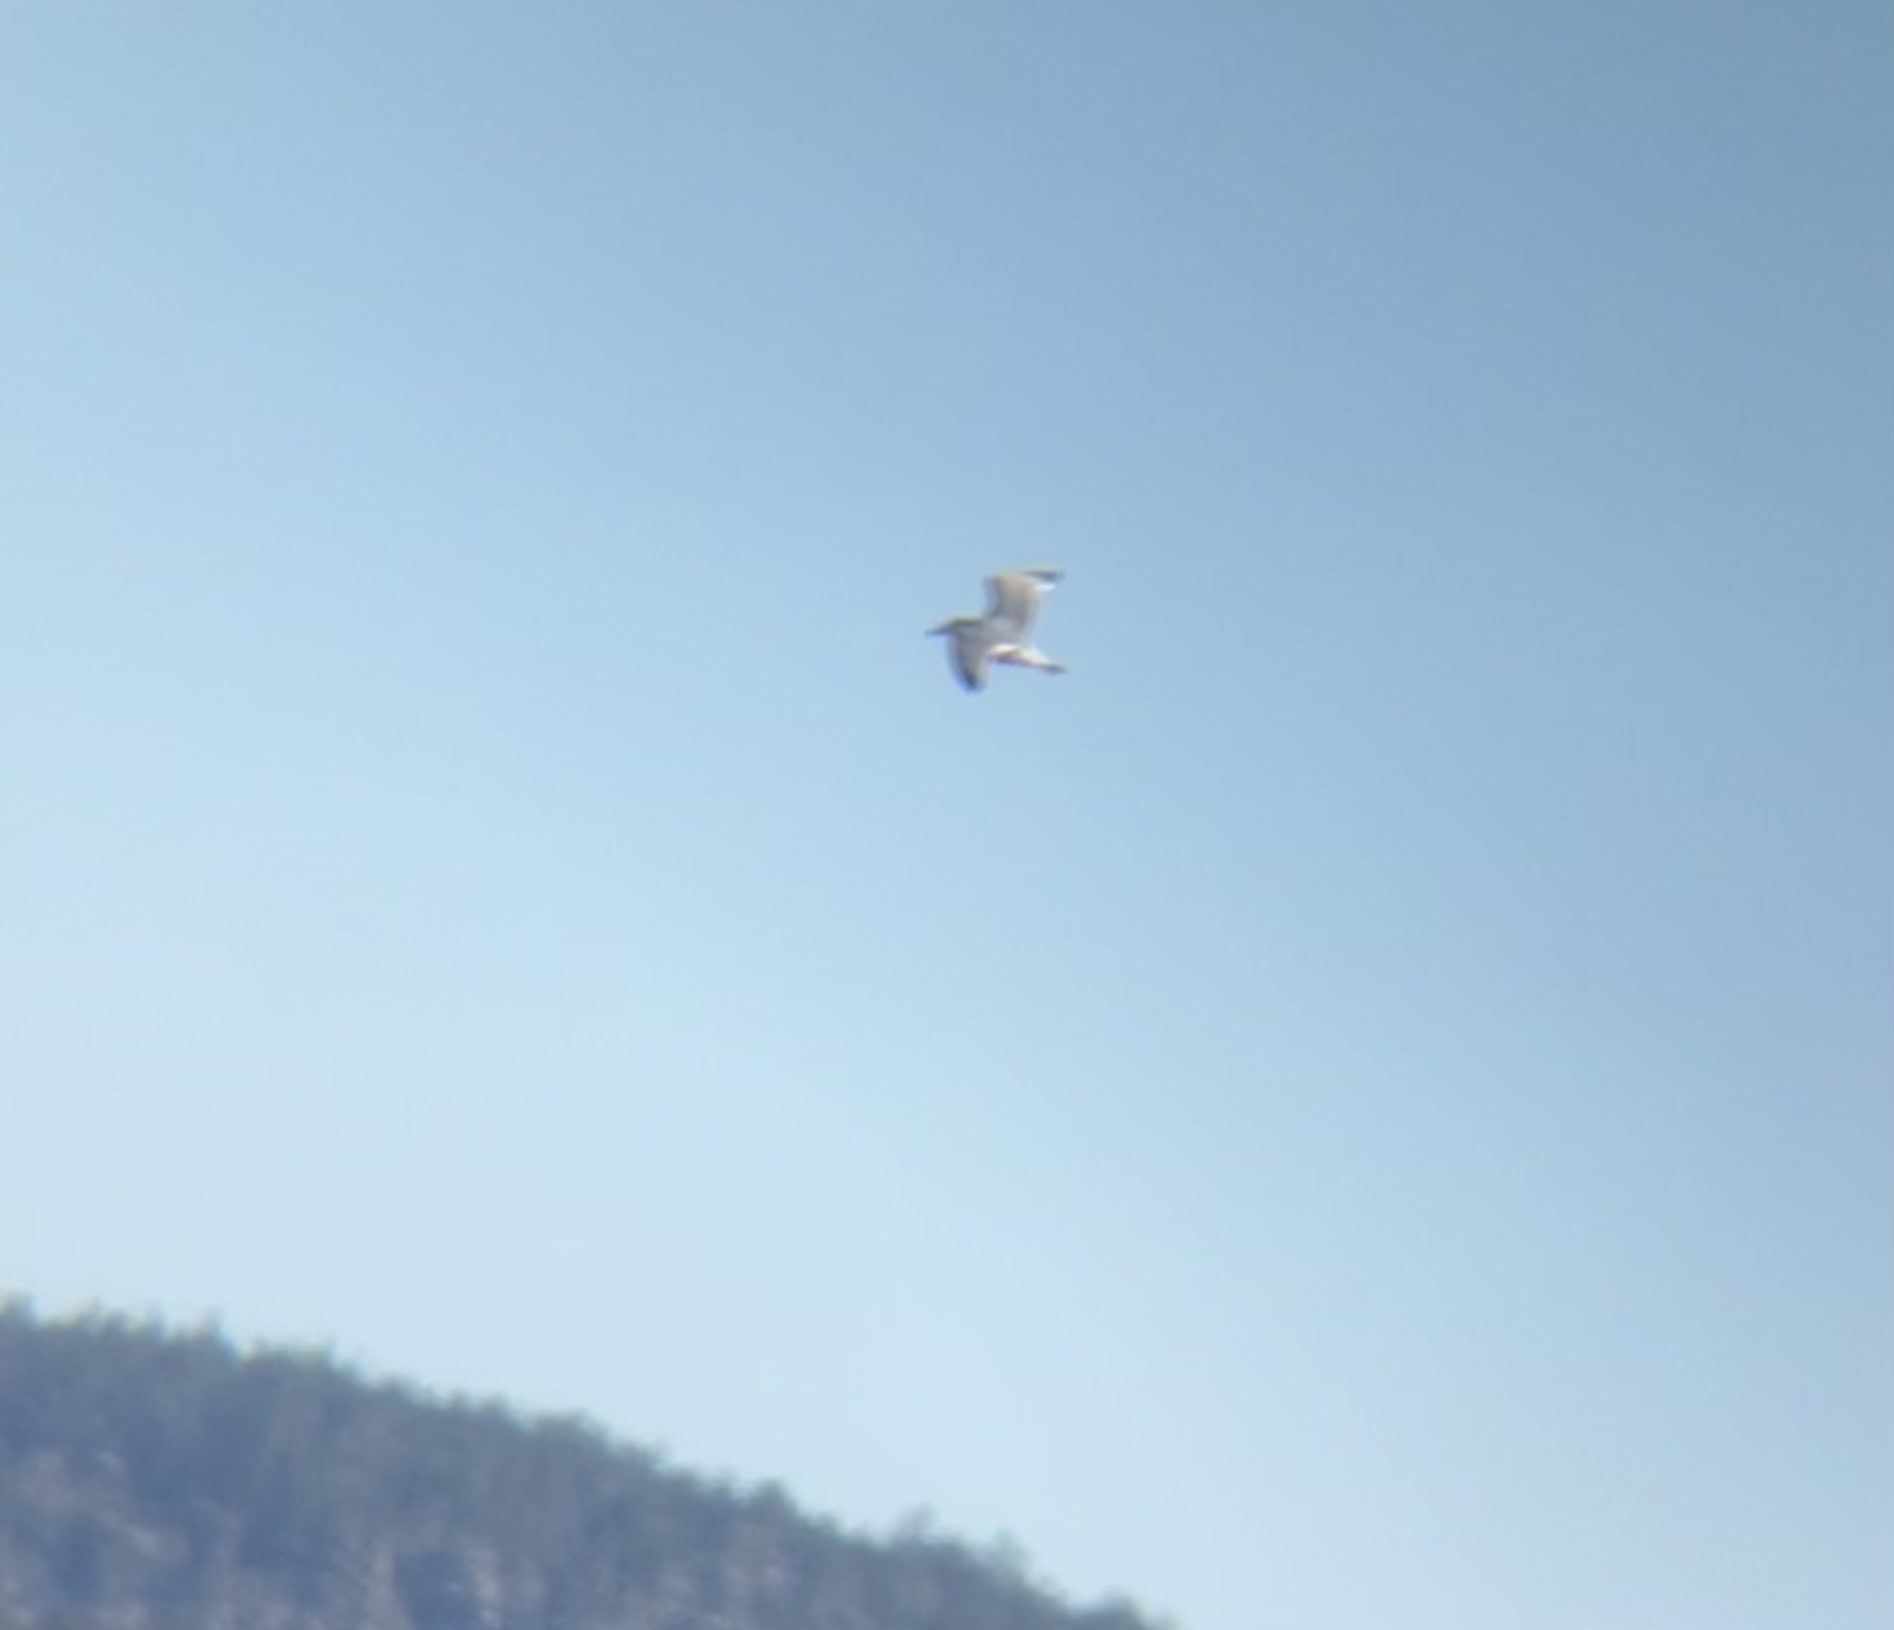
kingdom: Animalia
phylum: Chordata
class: Aves
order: Charadriiformes
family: Laridae
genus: Larus
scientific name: Larus argentatus
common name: Herring gull
